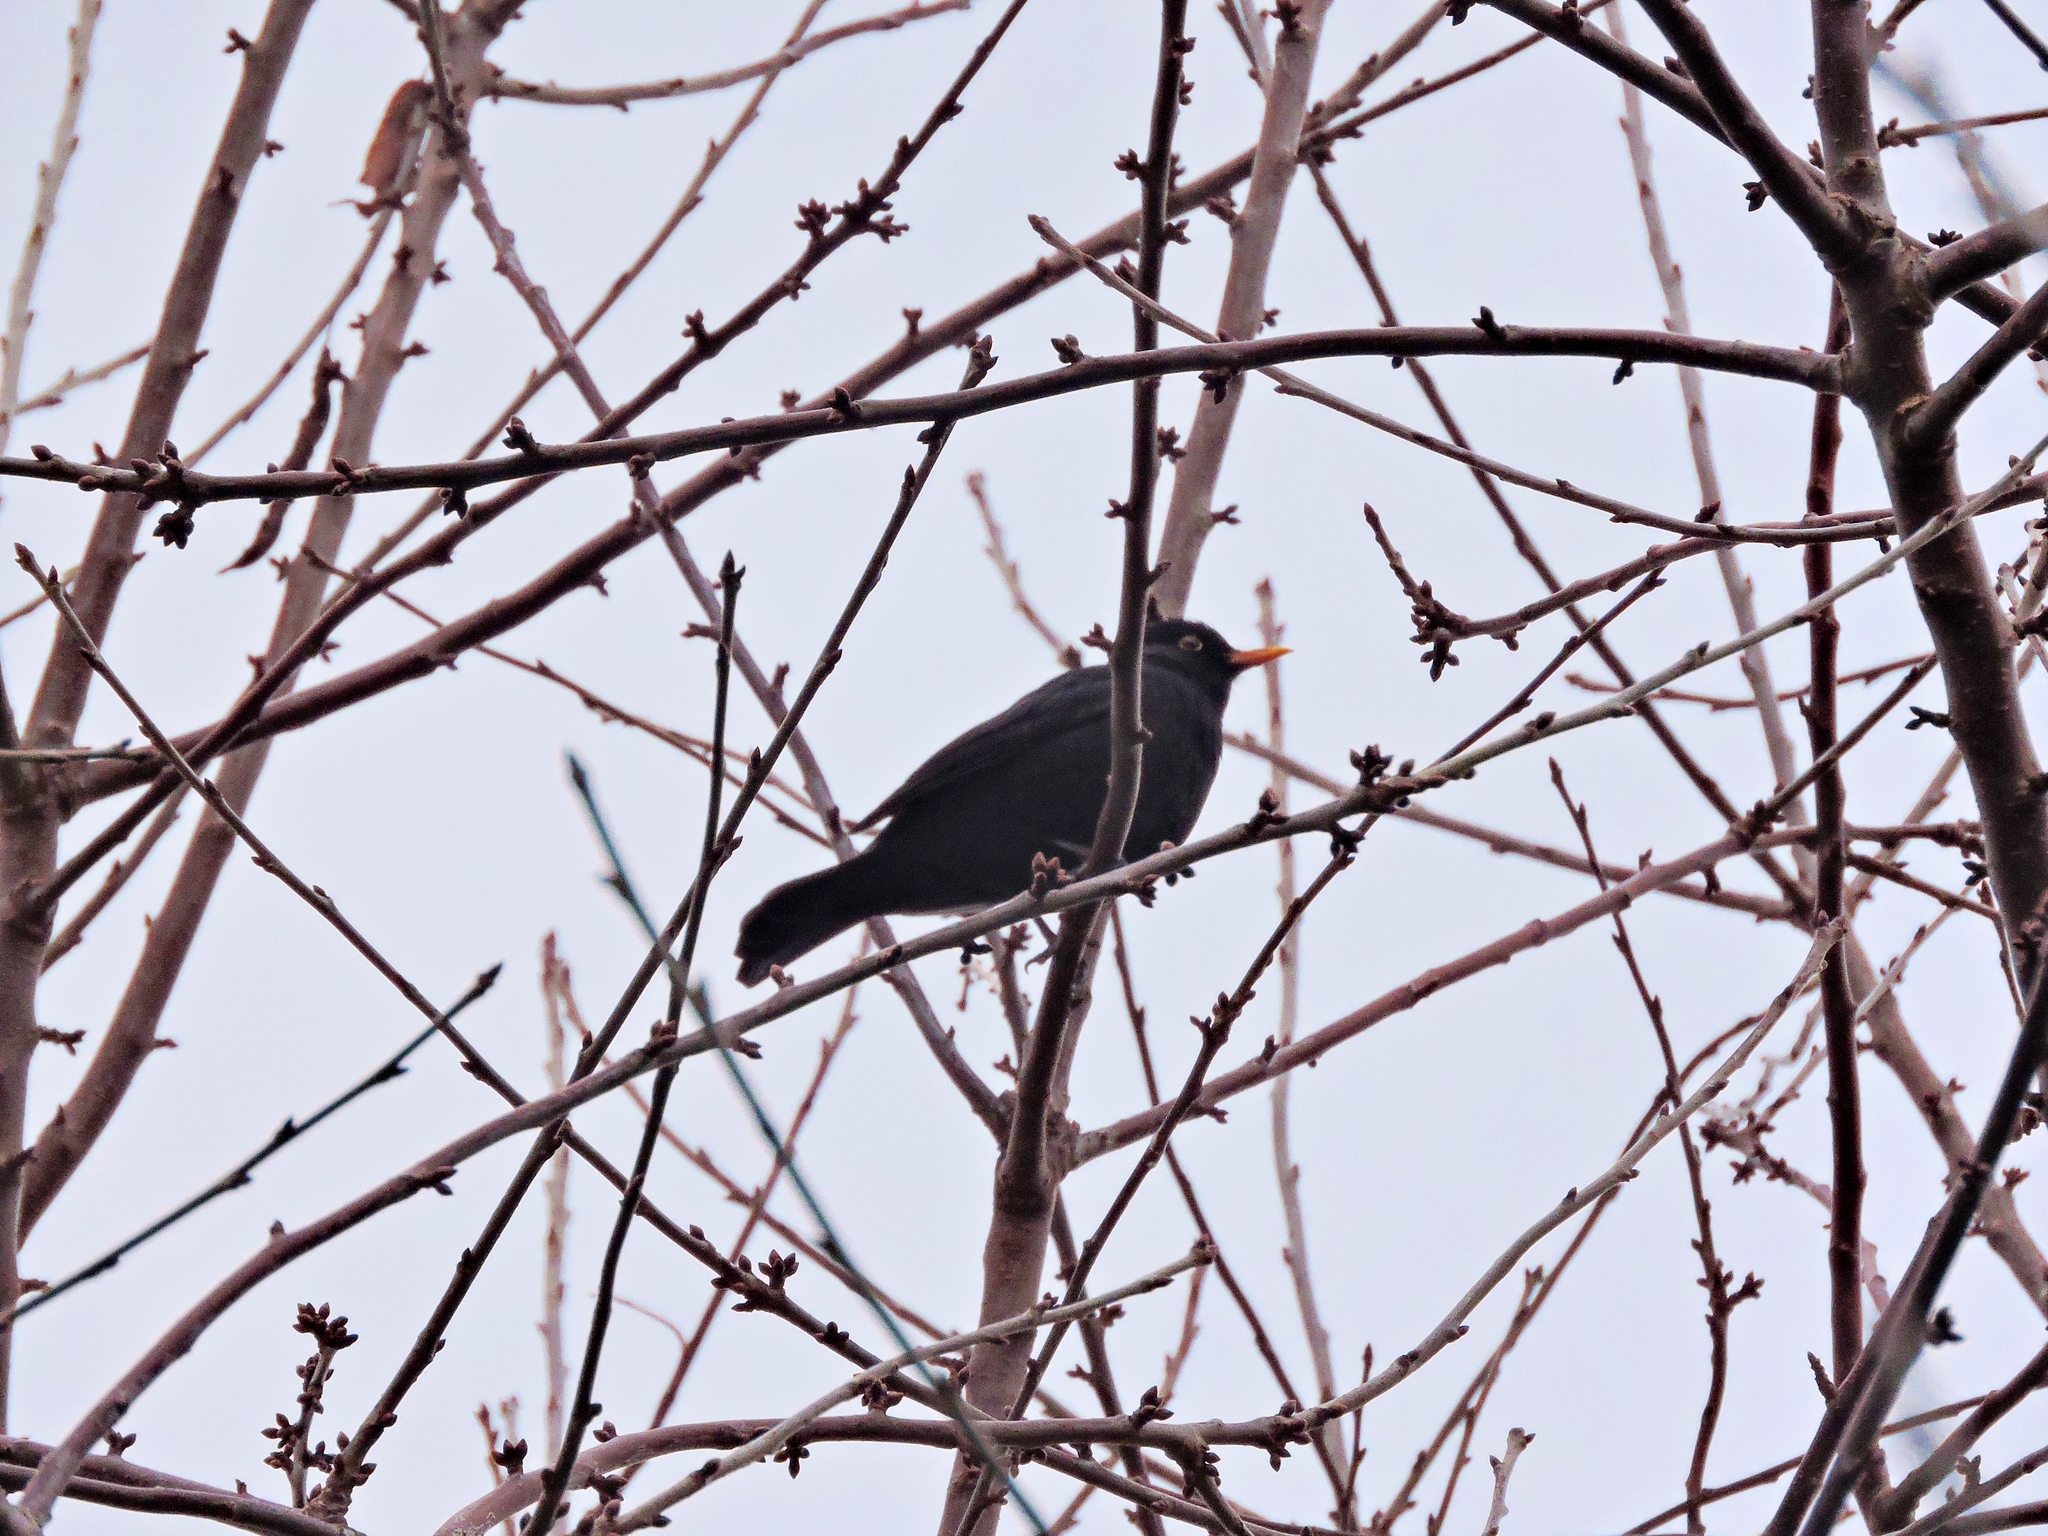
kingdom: Animalia
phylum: Chordata
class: Aves
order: Passeriformes
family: Turdidae
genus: Turdus
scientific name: Turdus merula
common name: Common blackbird
